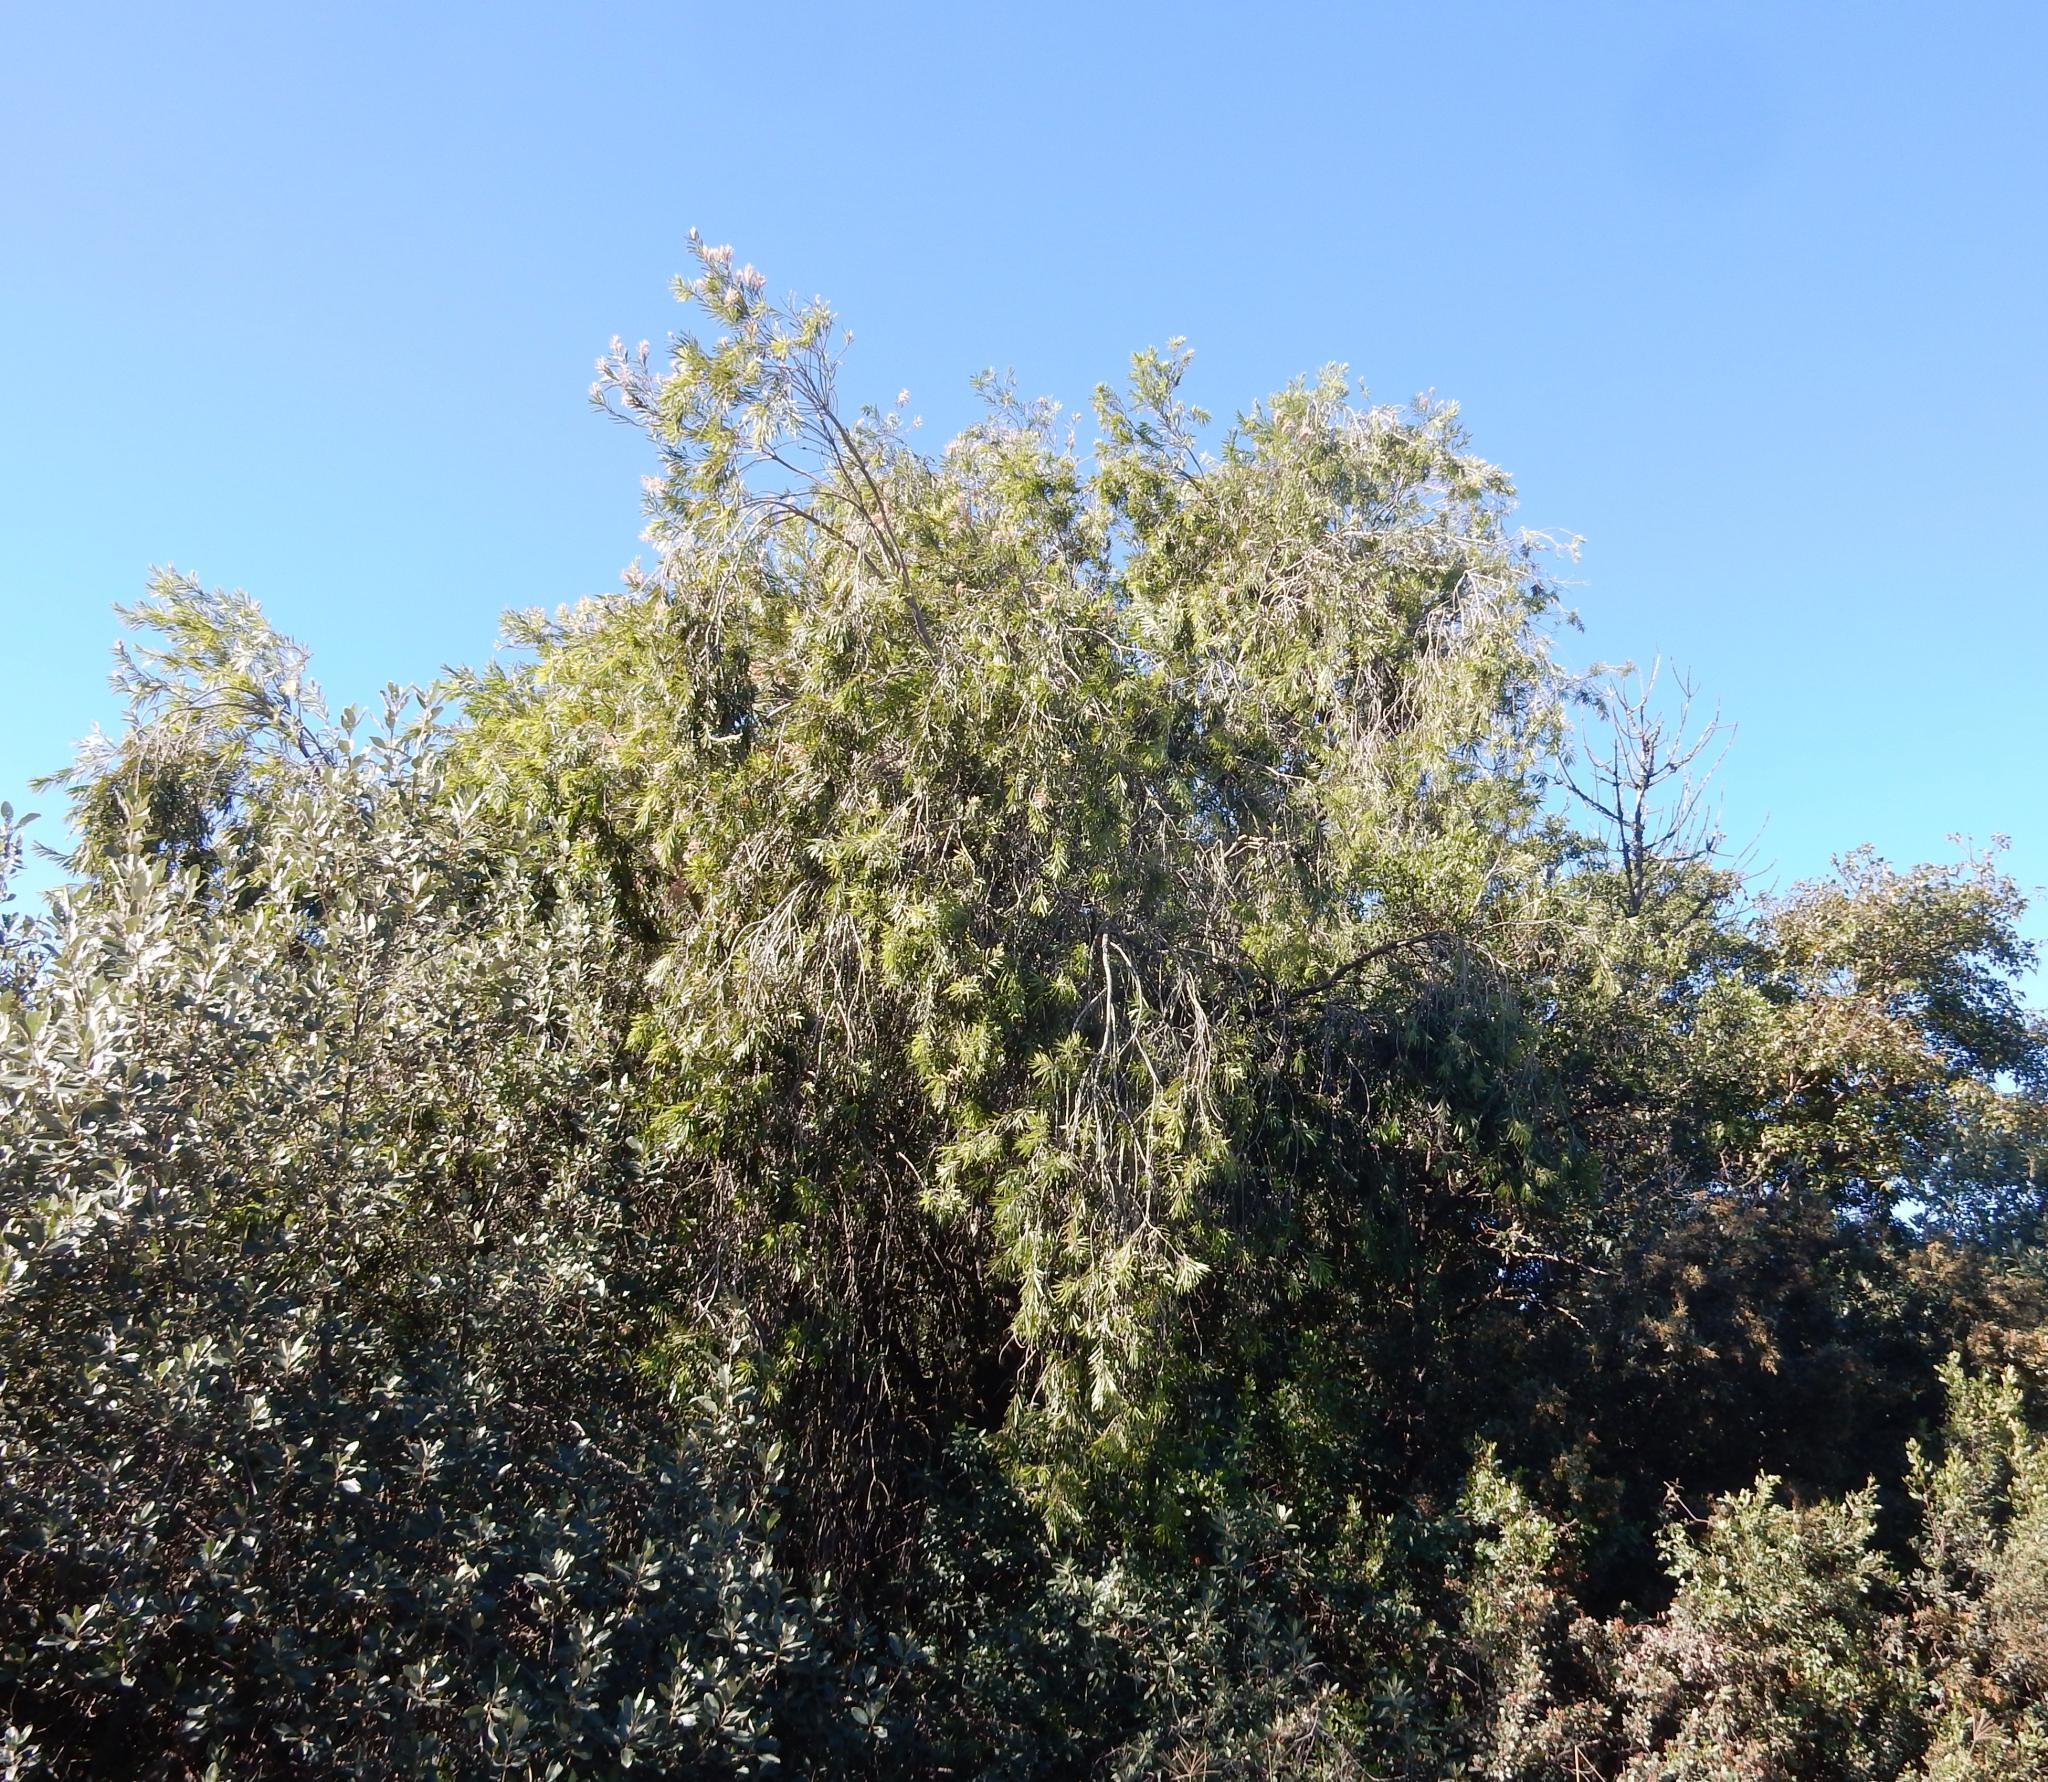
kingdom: Plantae
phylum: Tracheophyta
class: Magnoliopsida
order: Myrtales
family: Myrtaceae
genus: Callistemon
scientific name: Callistemon viminalis
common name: Drooping bottlebrush
